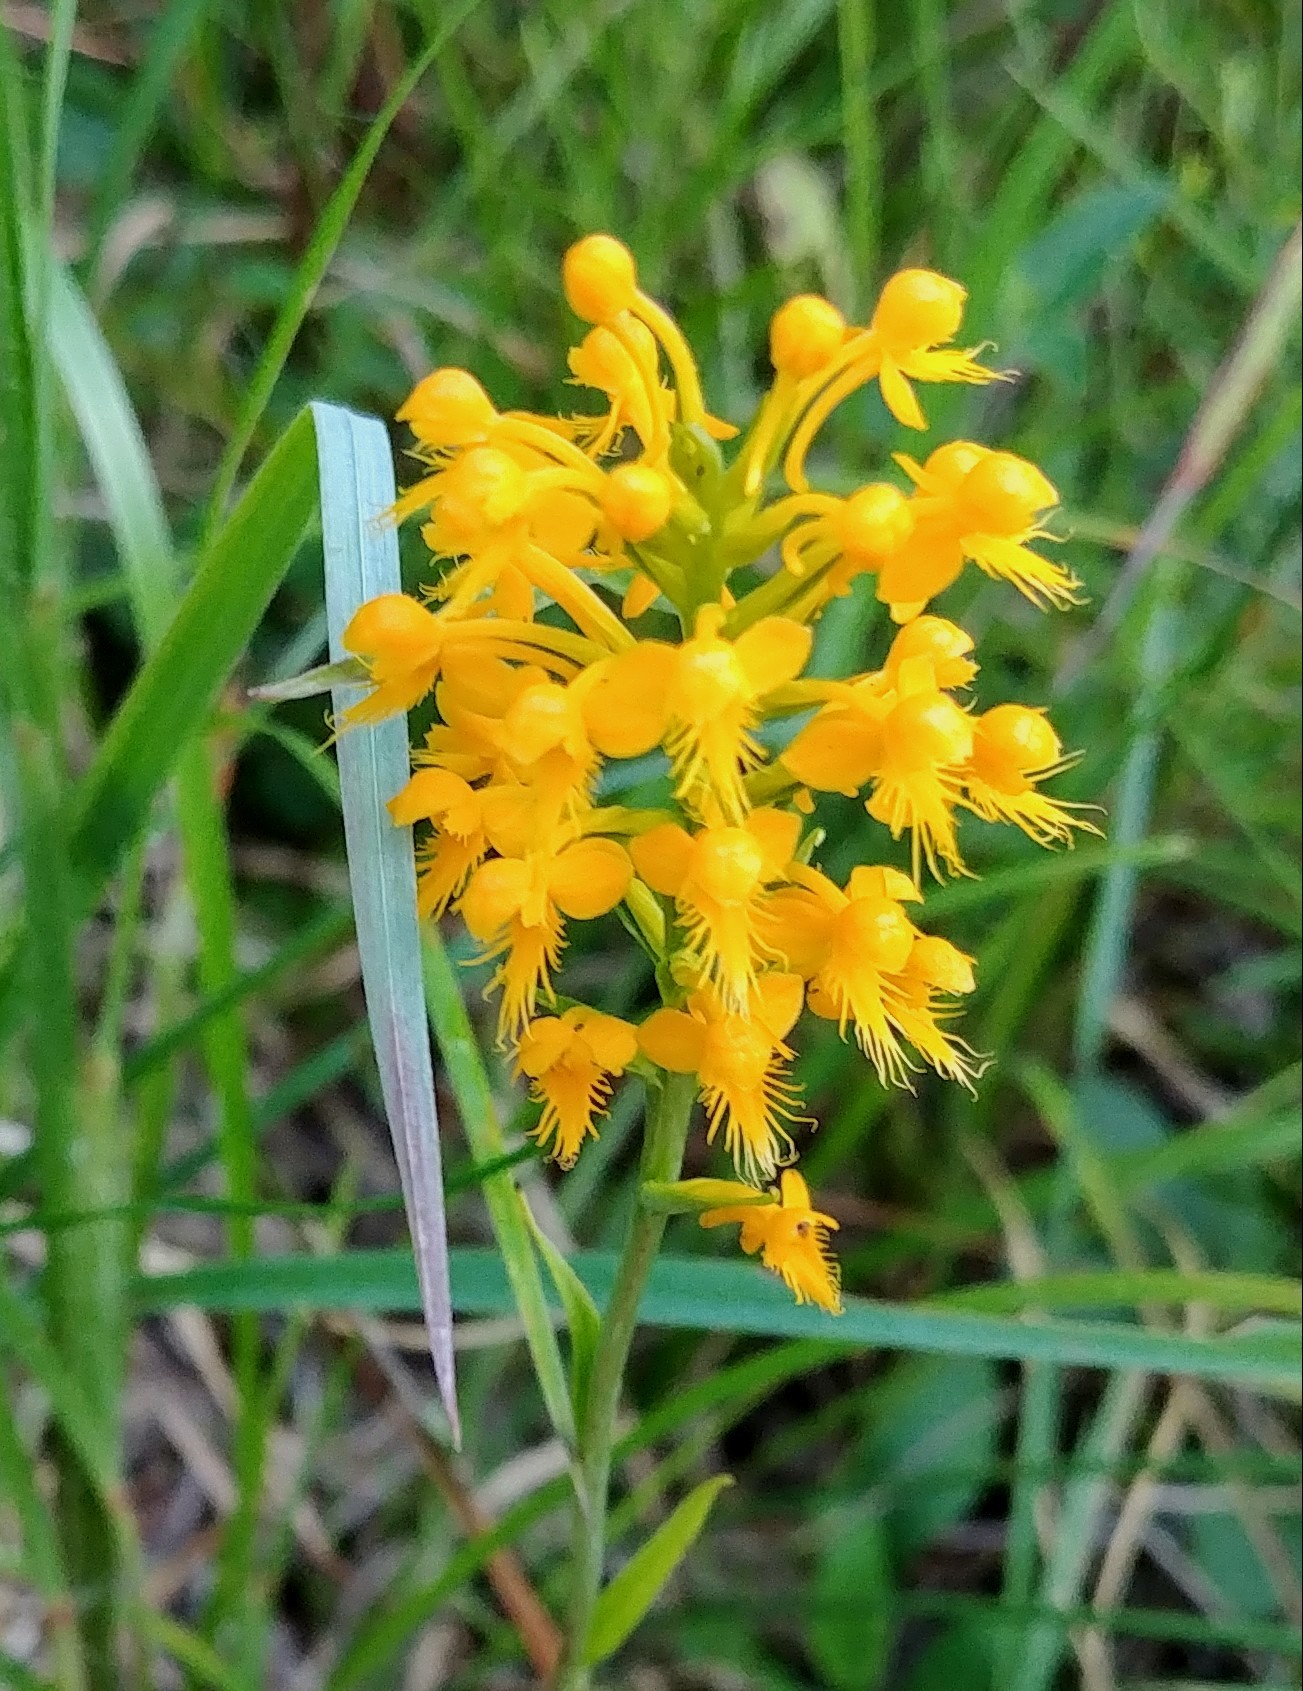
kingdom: Plantae
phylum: Tracheophyta
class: Liliopsida
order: Asparagales
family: Orchidaceae
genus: Platanthera
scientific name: Platanthera cristata
